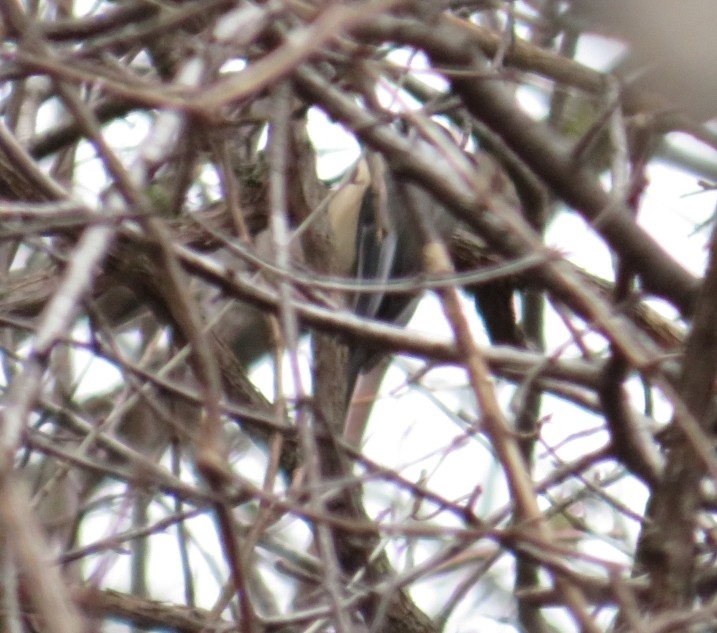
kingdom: Animalia
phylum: Chordata
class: Aves
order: Passeriformes
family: Paridae
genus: Poecile
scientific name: Poecile atricapillus
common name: Black-capped chickadee
